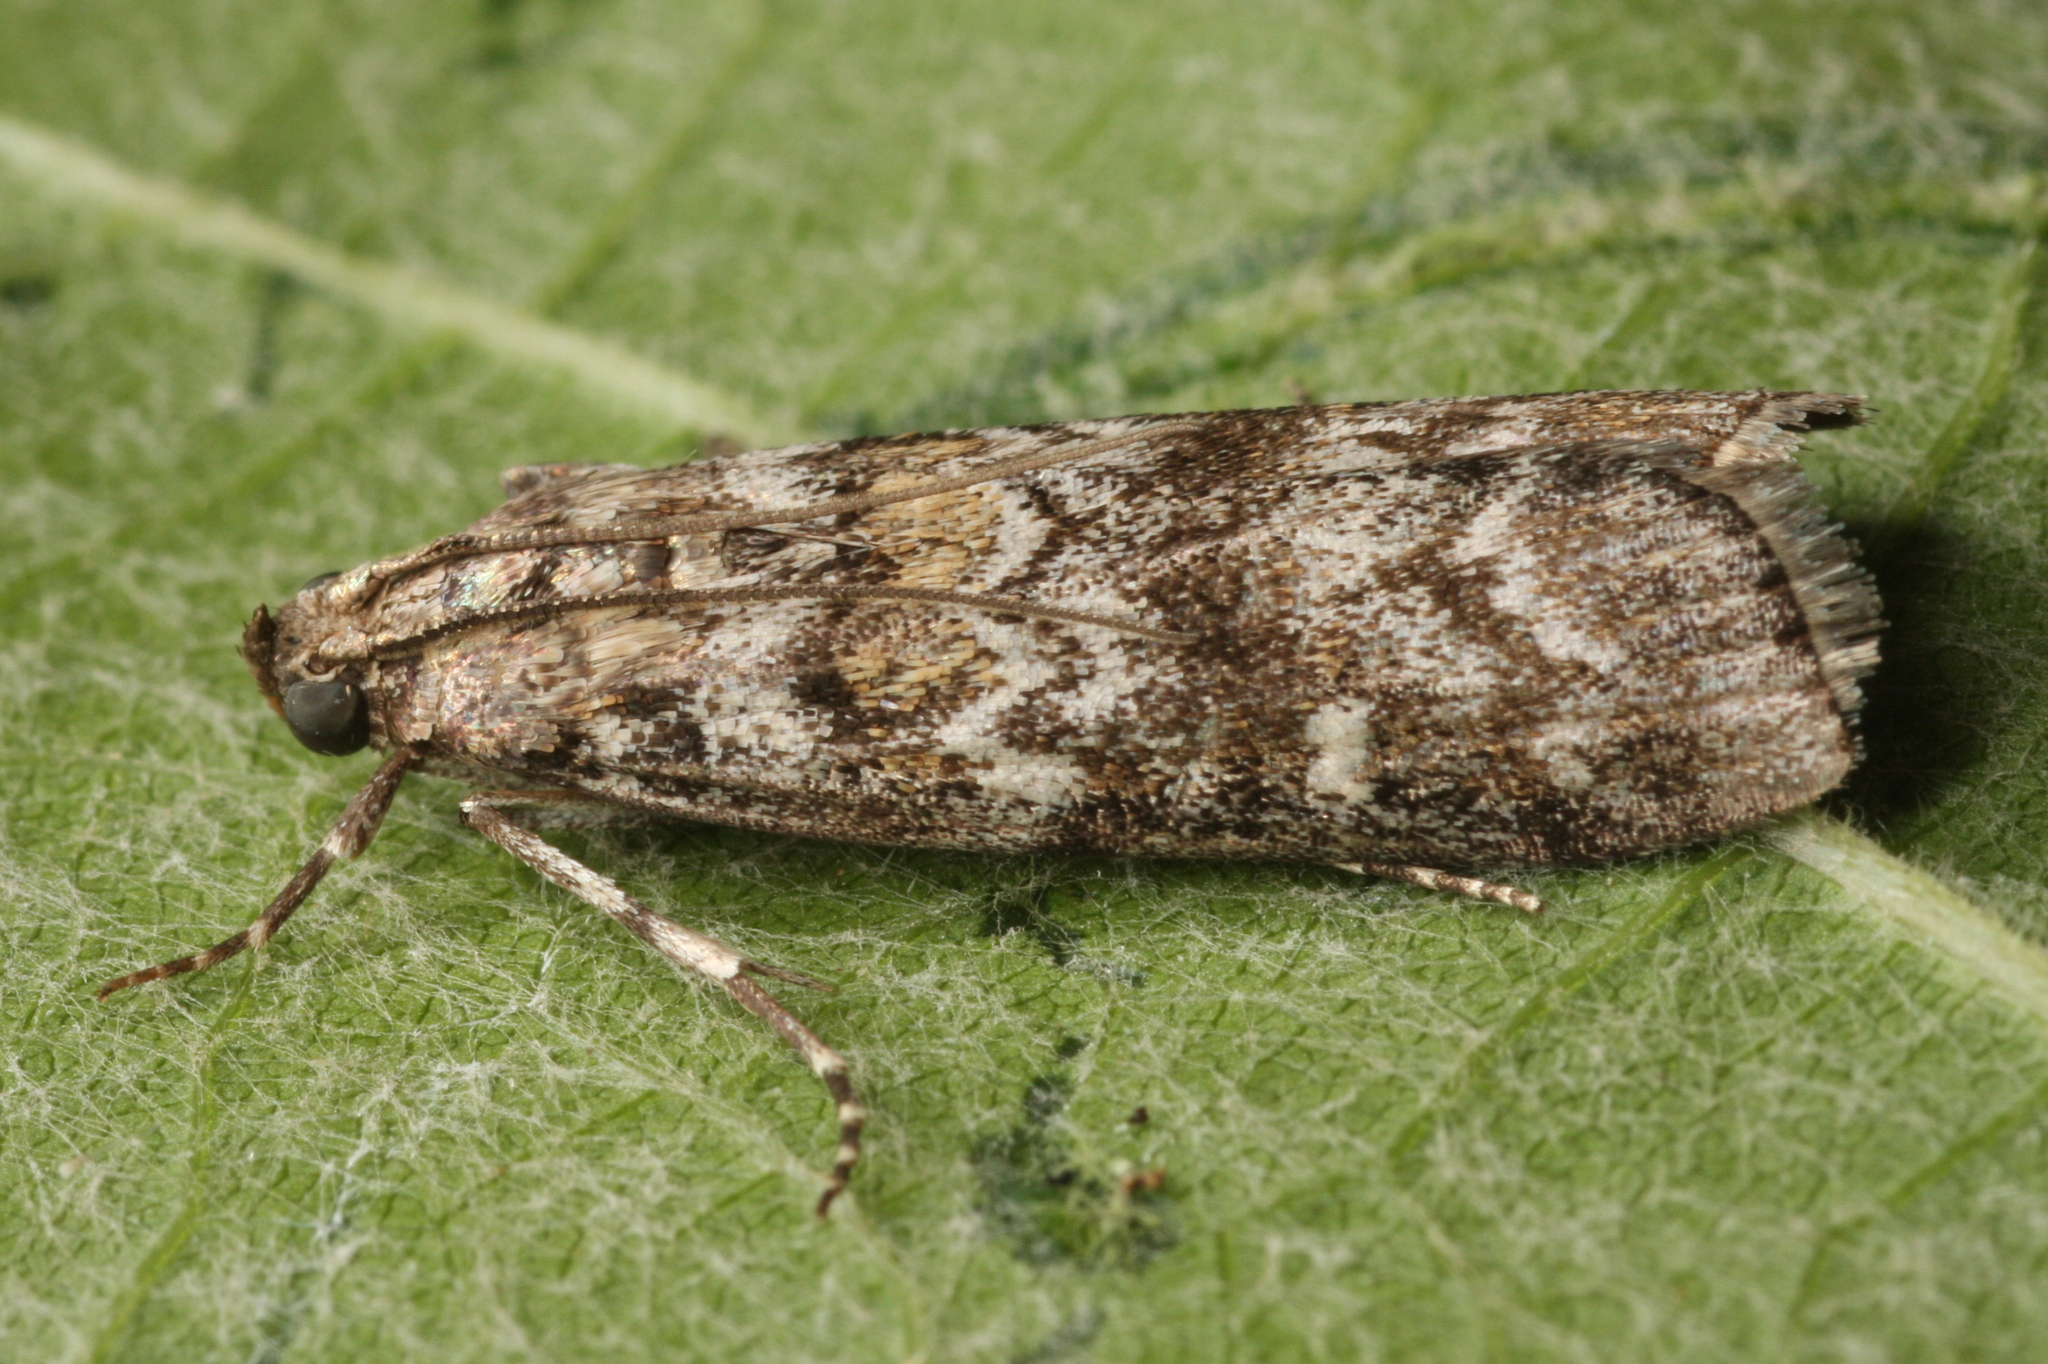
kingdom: Animalia
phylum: Arthropoda
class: Insecta
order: Lepidoptera
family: Pyralidae
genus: Dioryctria
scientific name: Dioryctria abietella
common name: Dark pine knot-horn
